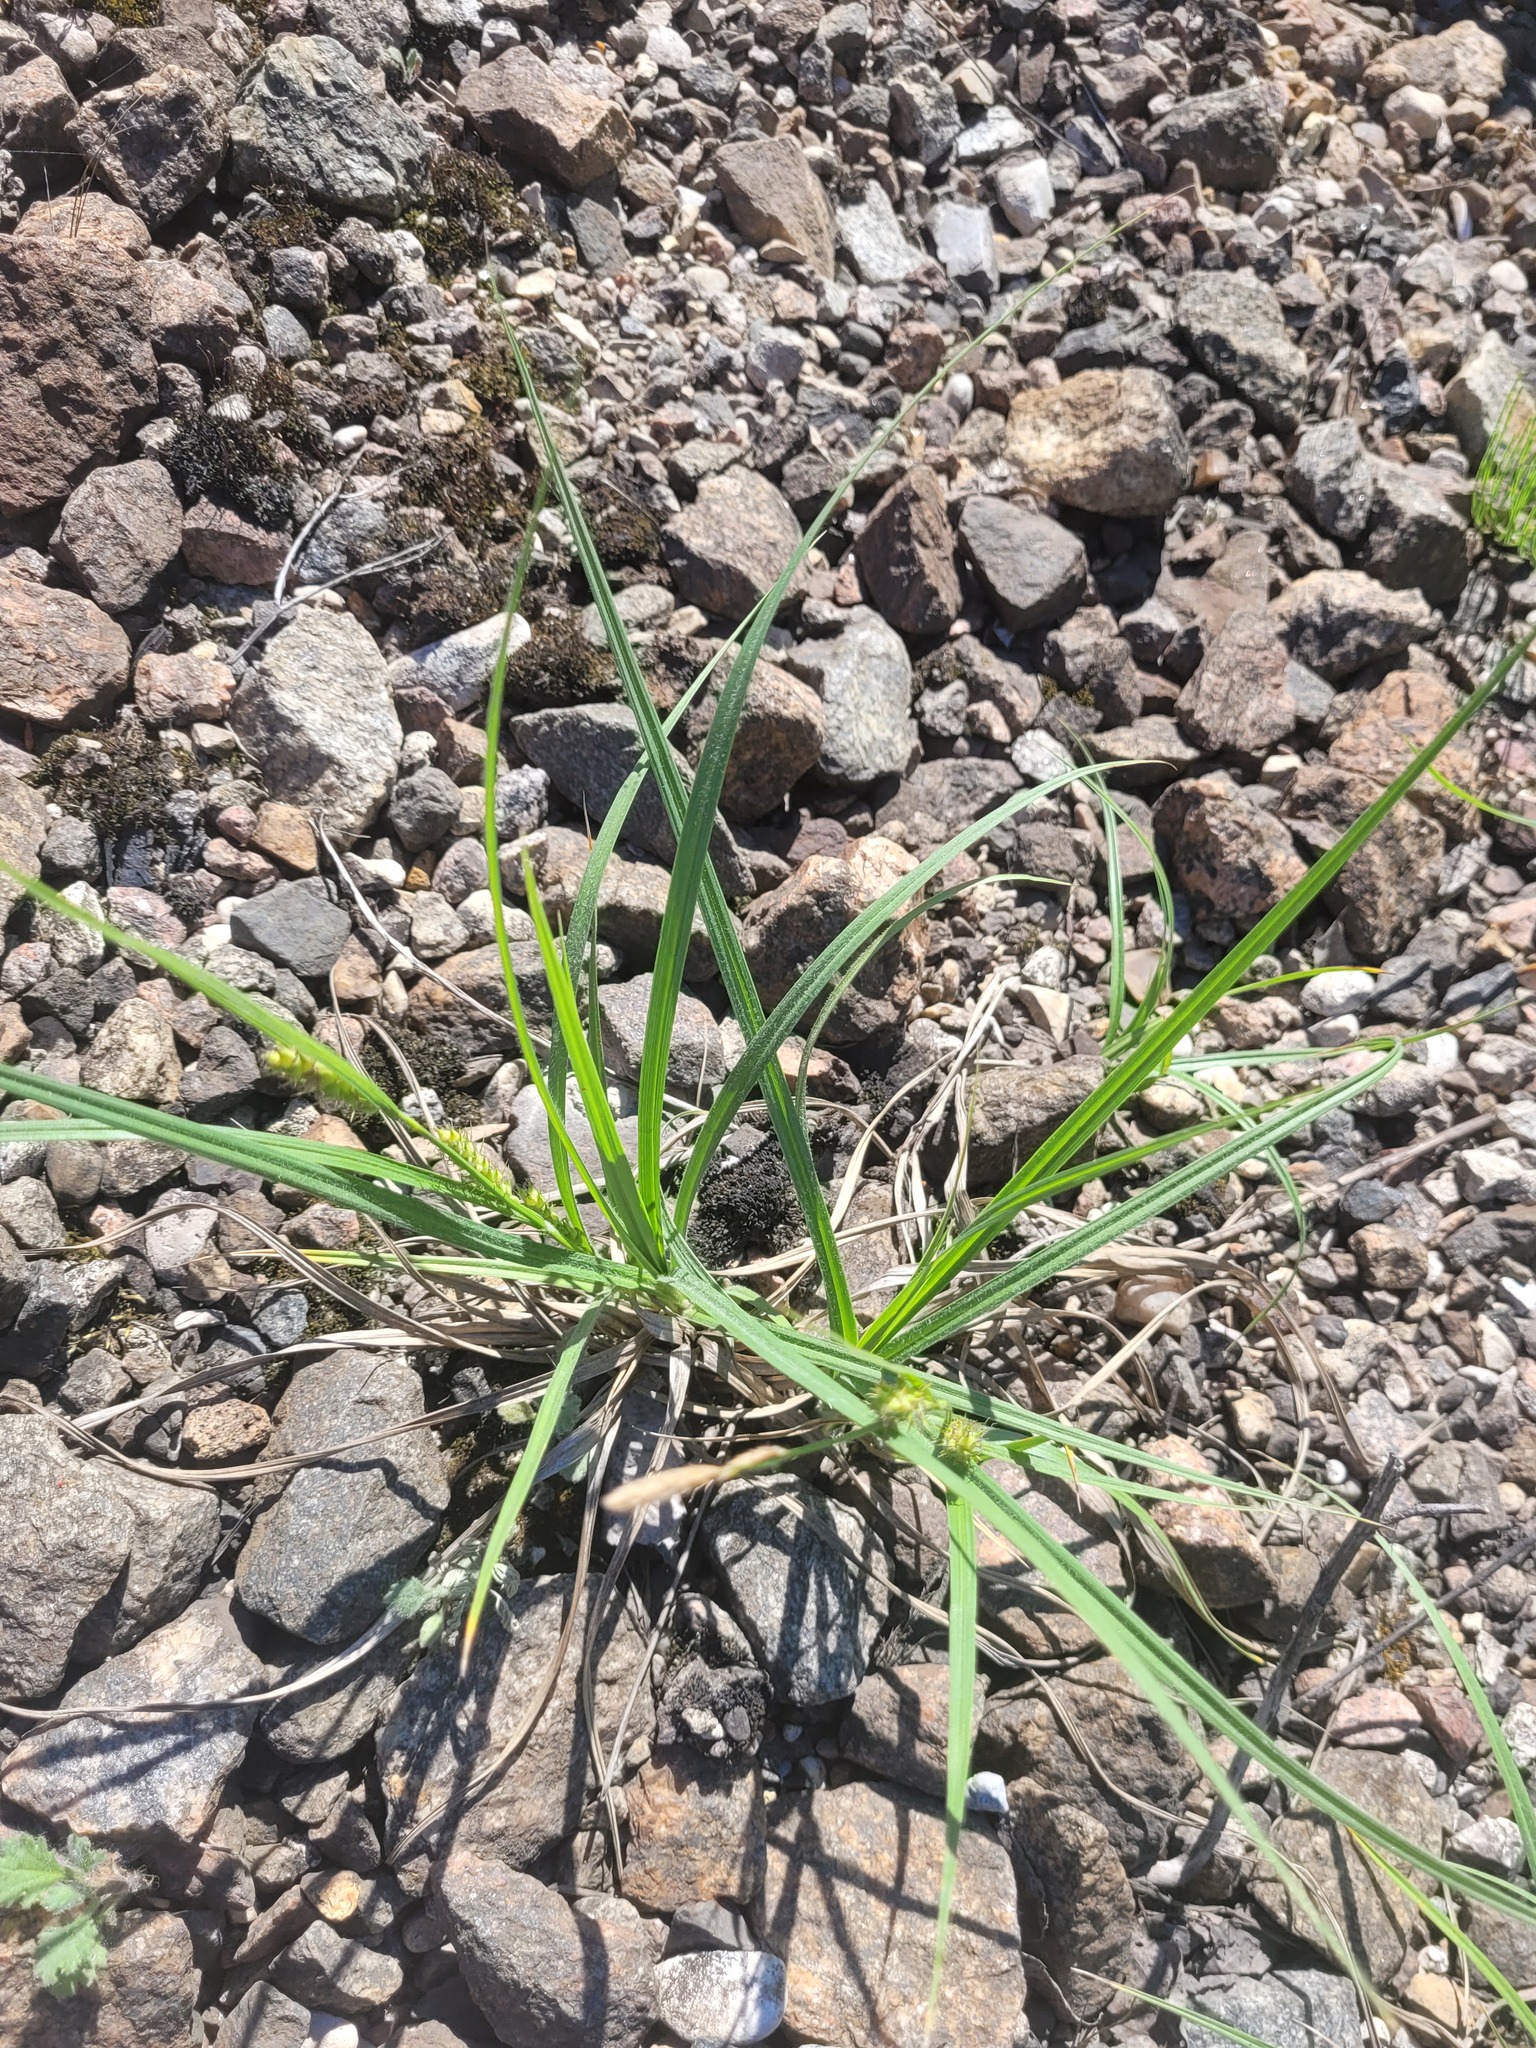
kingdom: Plantae
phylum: Tracheophyta
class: Liliopsida
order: Poales
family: Cyperaceae
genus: Carex
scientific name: Carex hirta
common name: Hairy sedge
